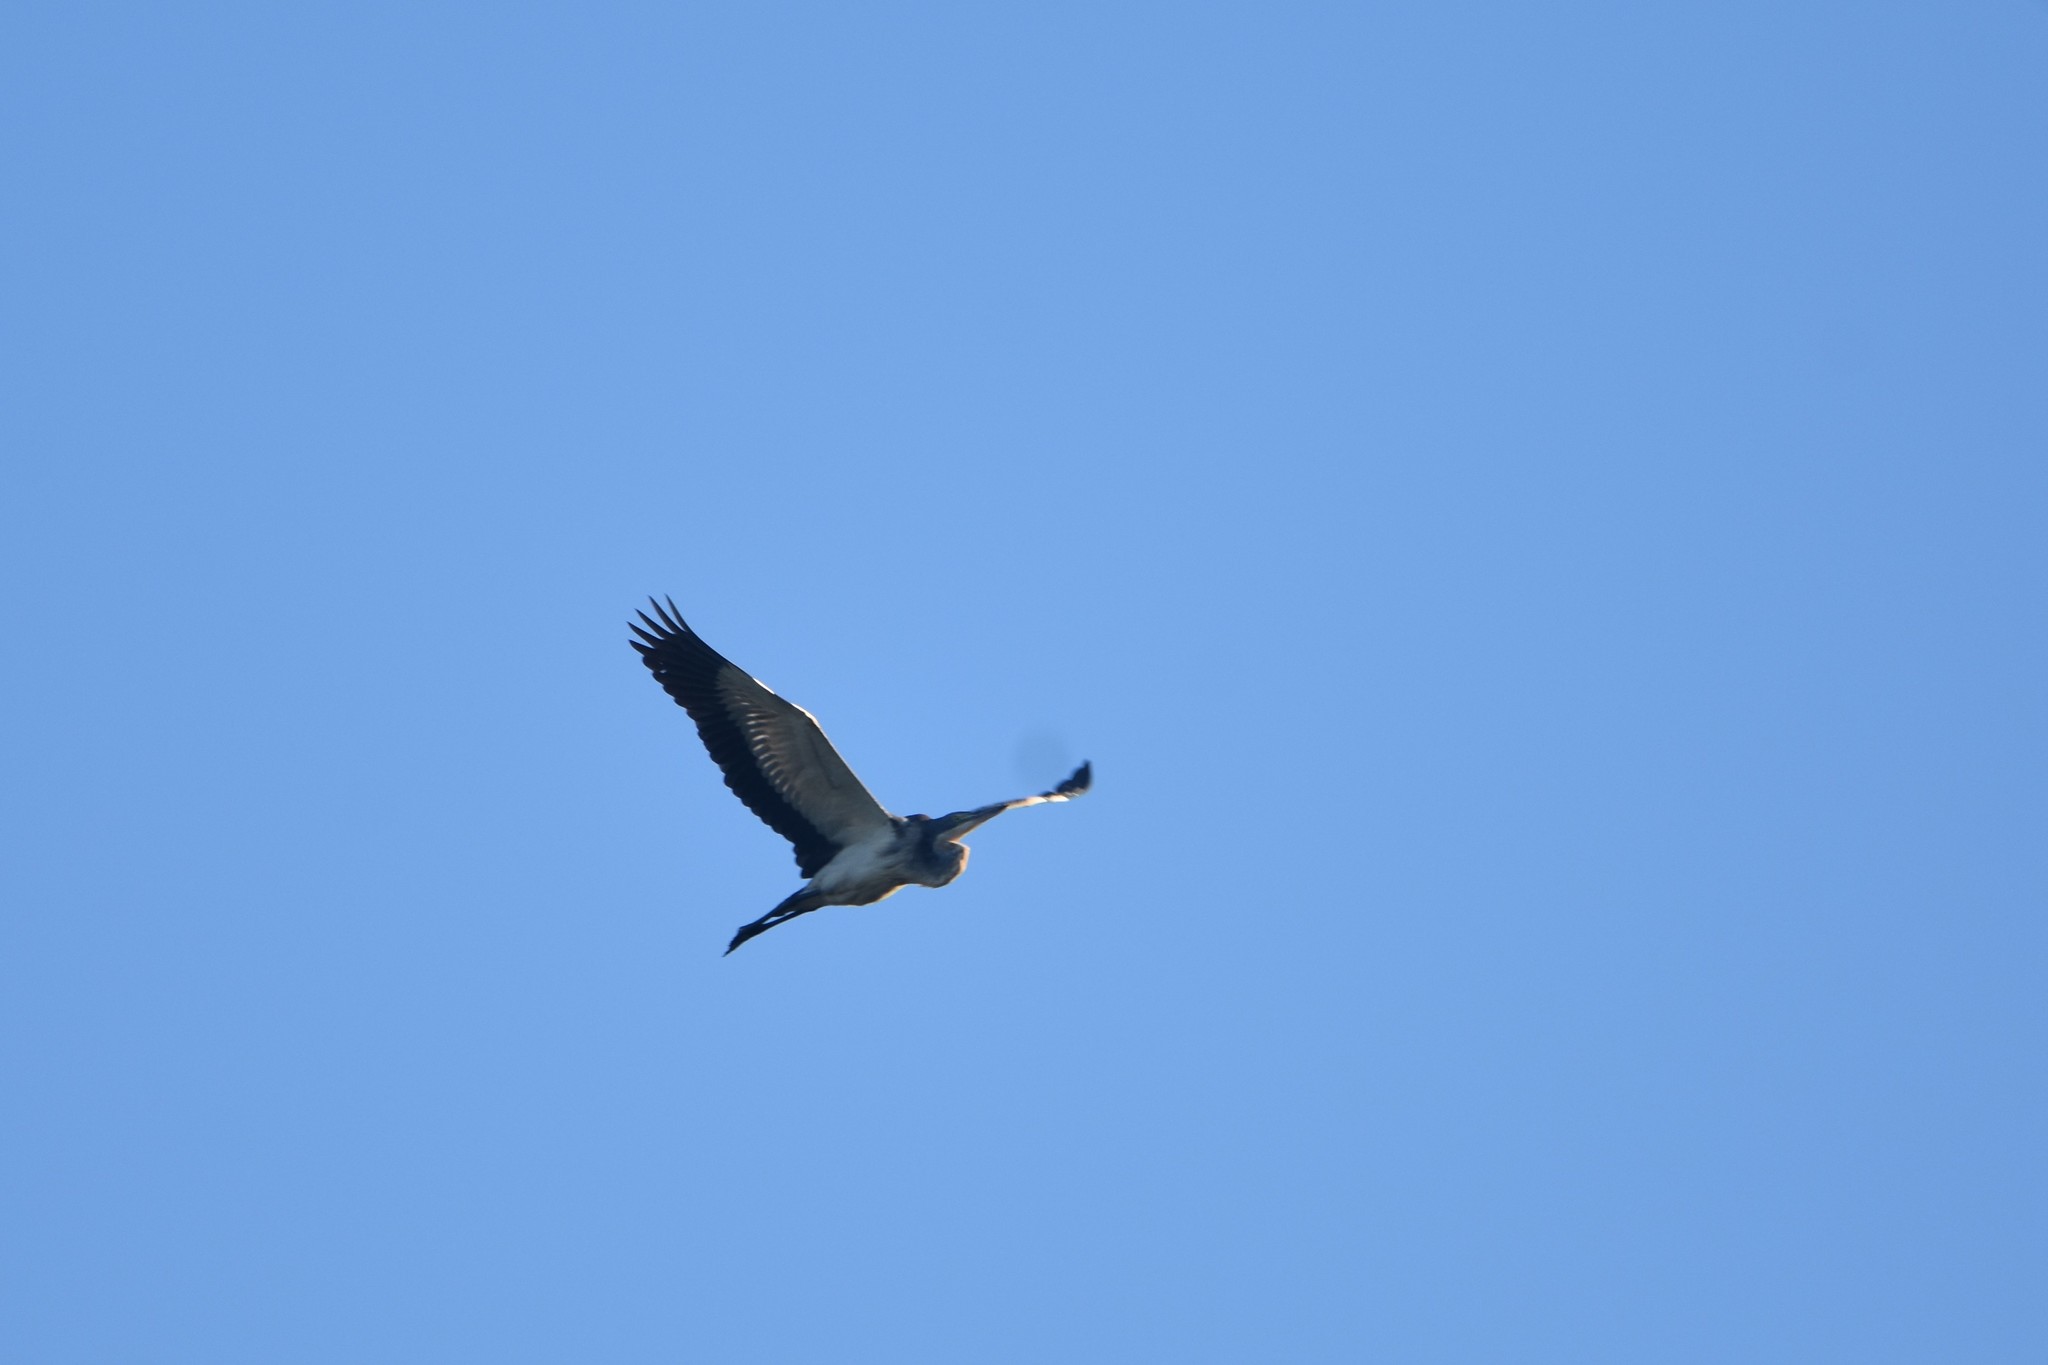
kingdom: Animalia
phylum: Chordata
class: Aves
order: Pelecaniformes
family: Ardeidae
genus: Ardea
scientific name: Ardea melanocephala
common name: Black-headed heron
